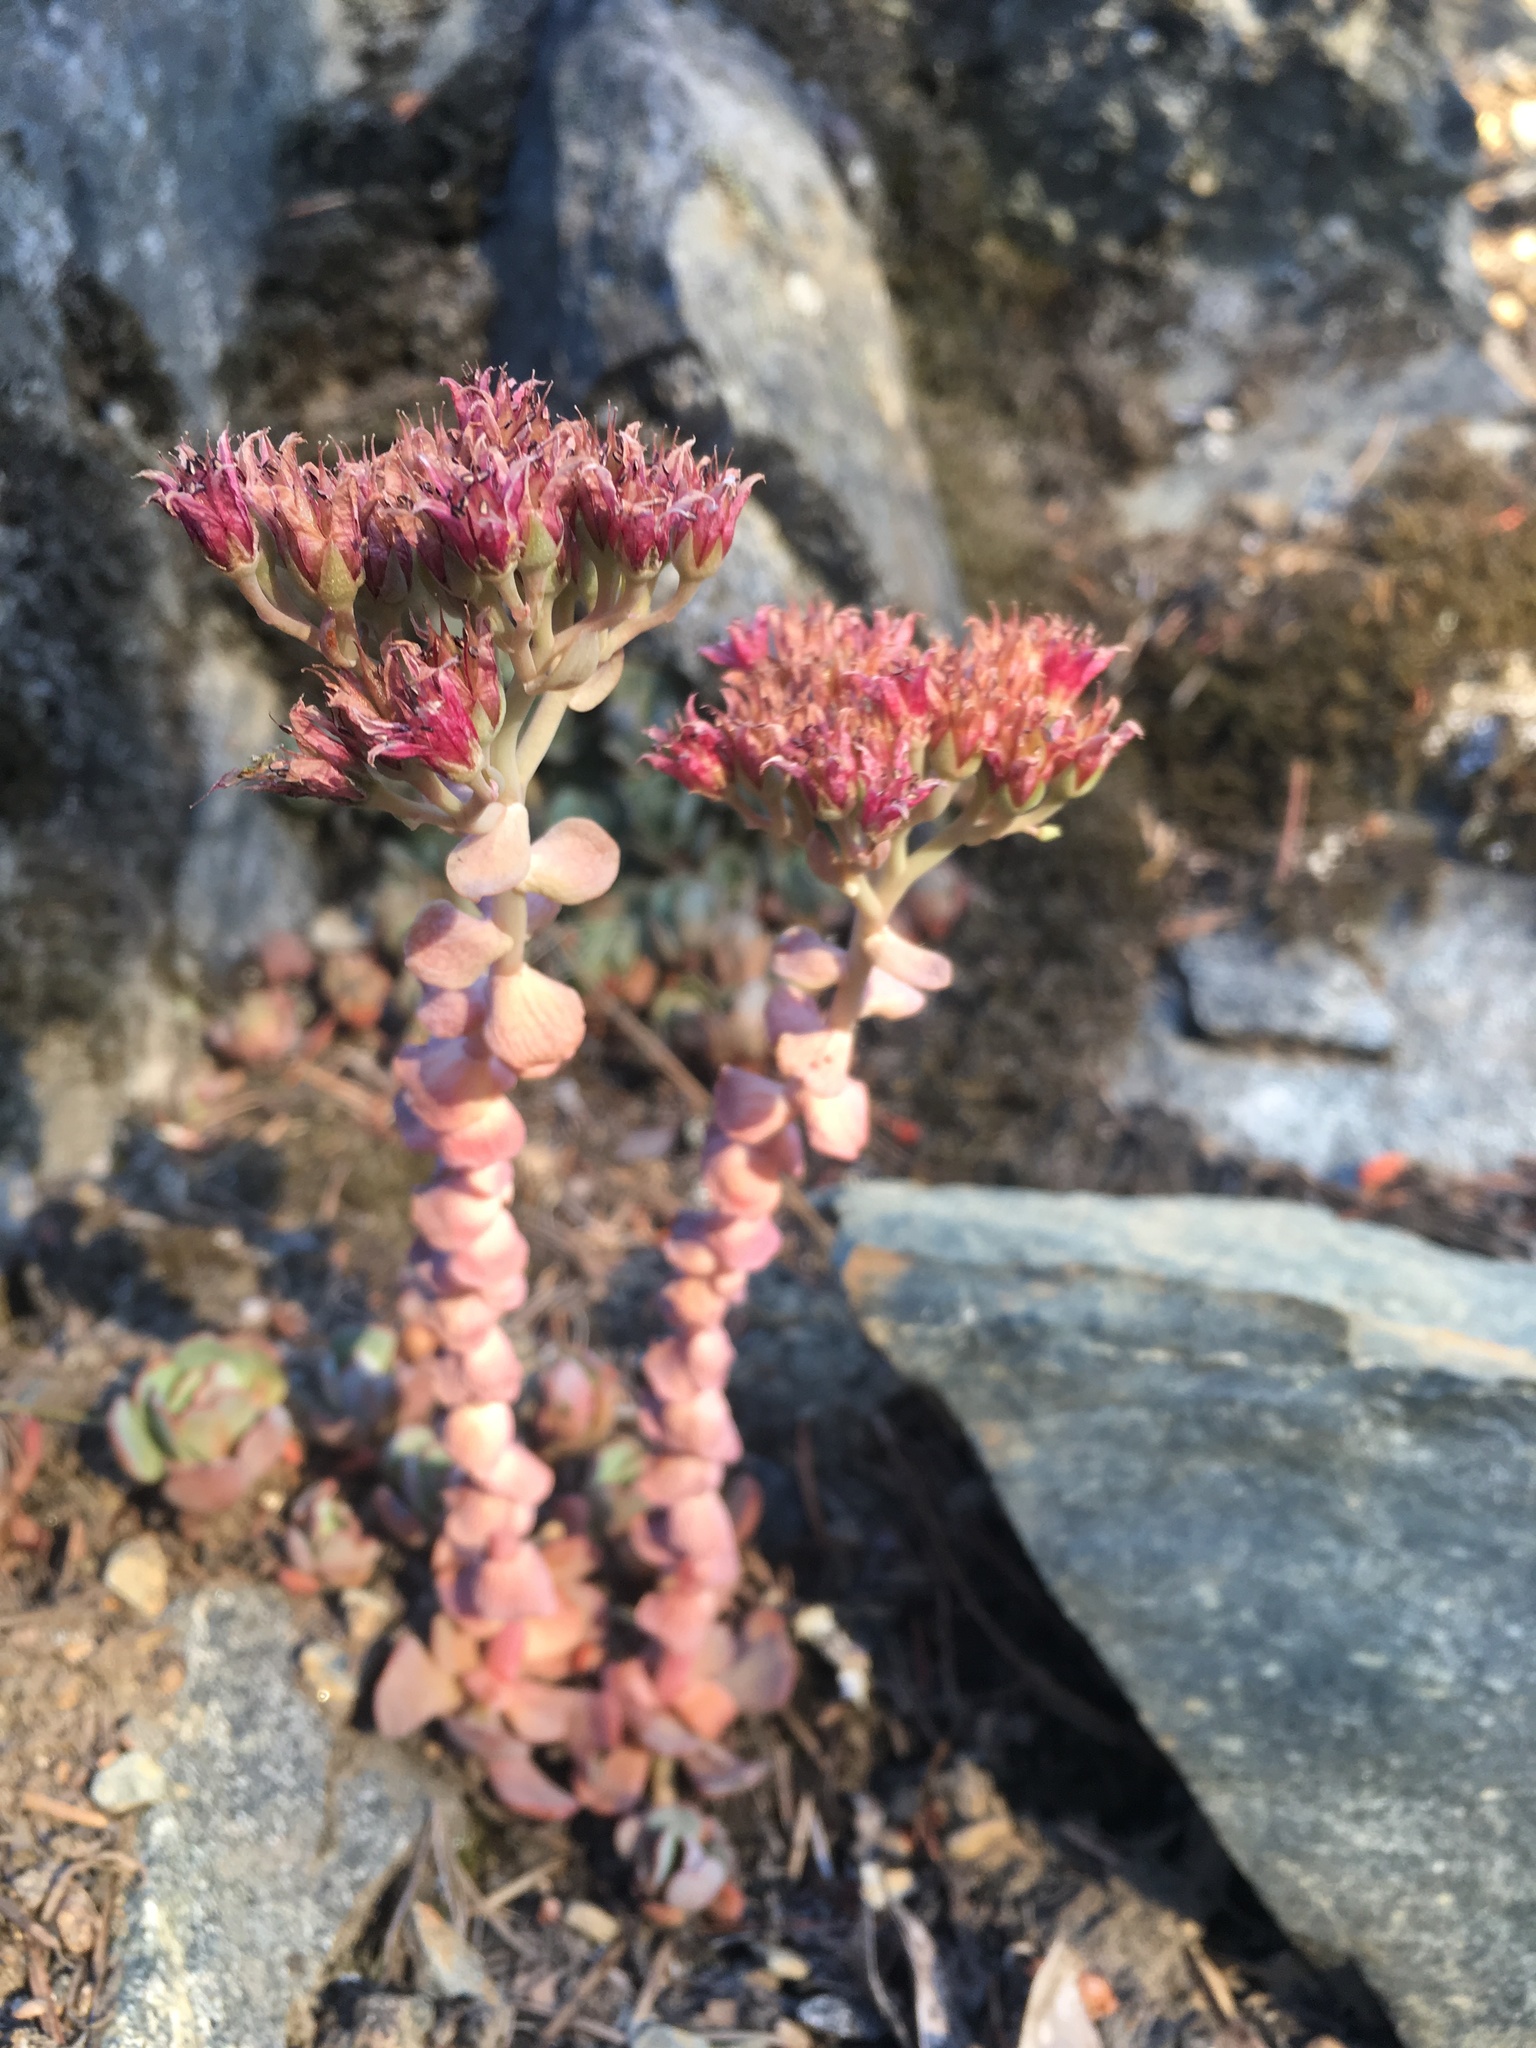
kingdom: Plantae
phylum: Tracheophyta
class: Magnoliopsida
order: Saxifragales
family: Crassulaceae
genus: Sedum
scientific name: Sedum laxum
